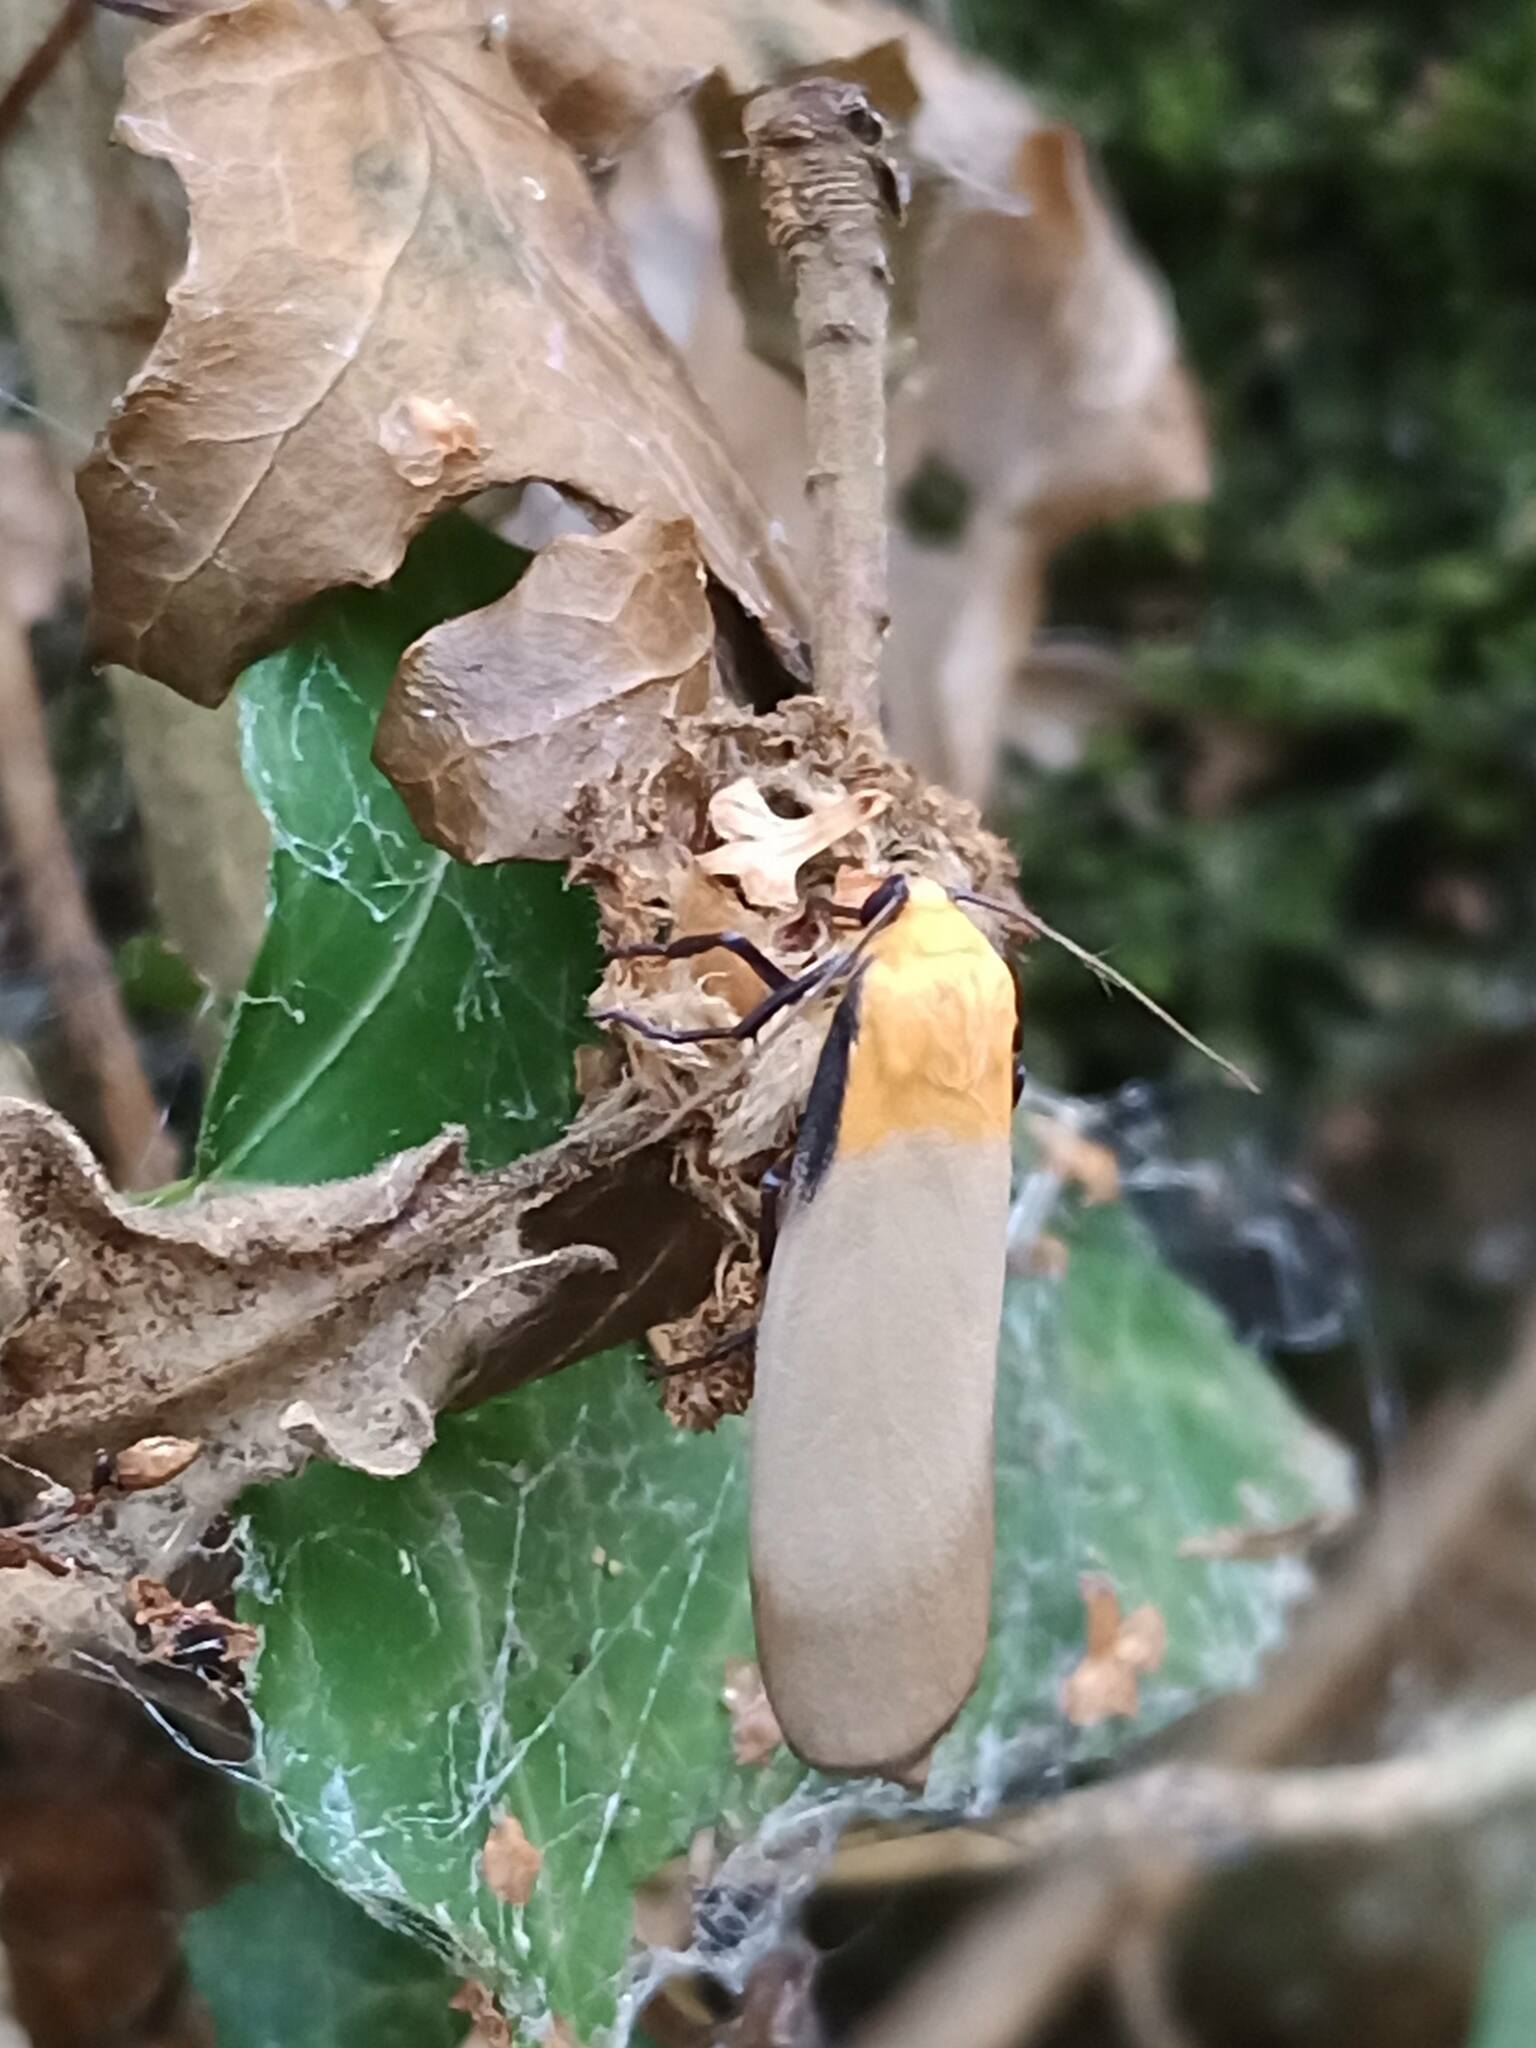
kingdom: Animalia
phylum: Arthropoda
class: Insecta
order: Lepidoptera
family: Erebidae
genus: Lithosia
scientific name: Lithosia quadra
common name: Four-spotted footman
